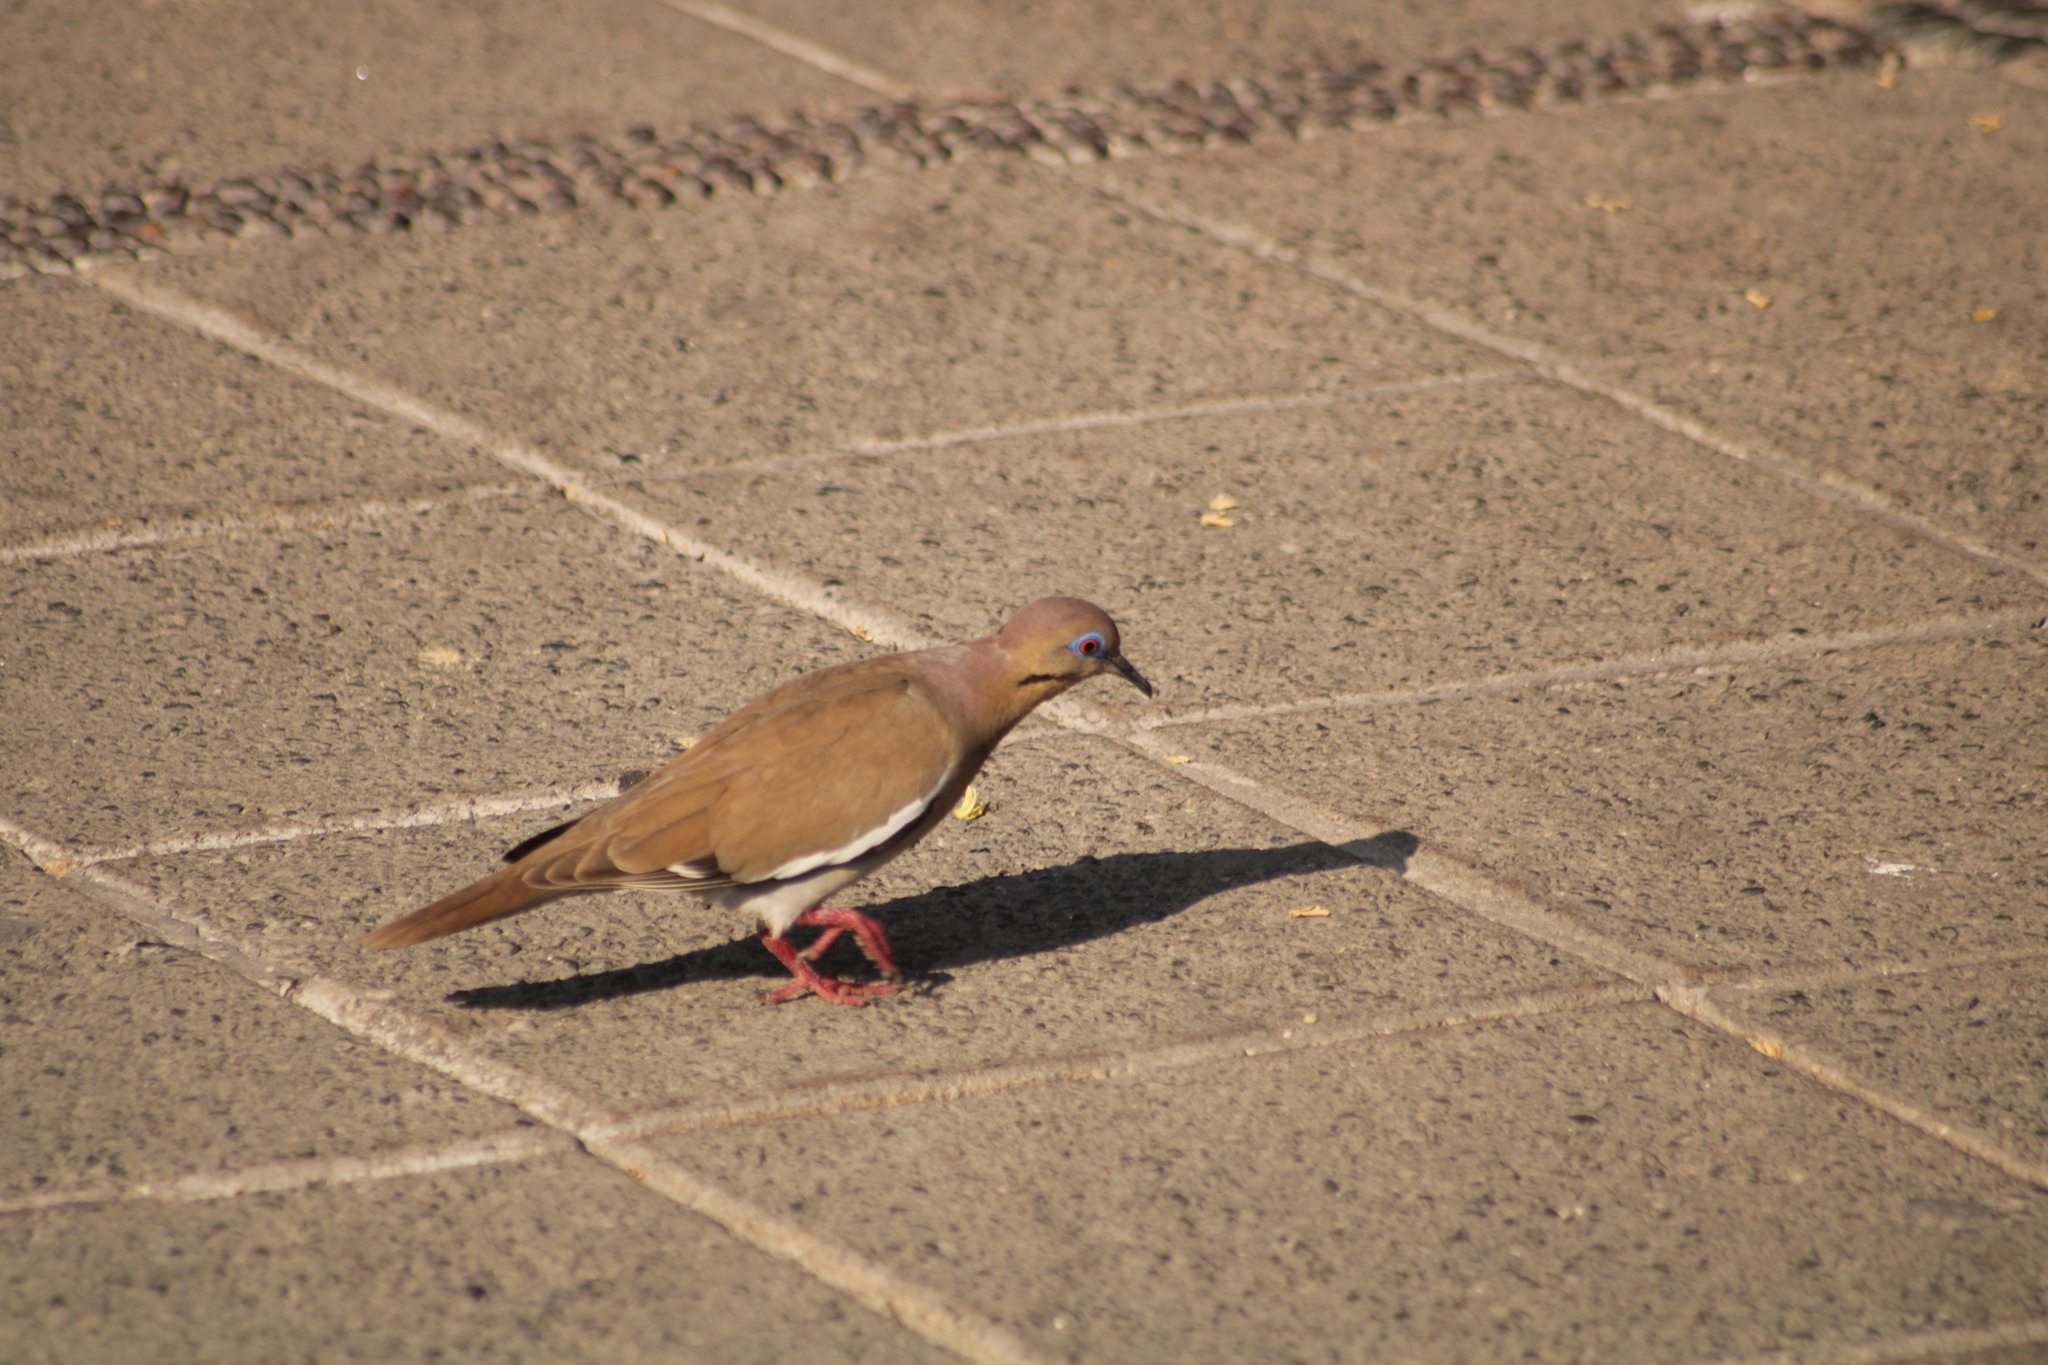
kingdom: Animalia
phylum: Chordata
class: Aves
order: Columbiformes
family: Columbidae
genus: Zenaida
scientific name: Zenaida asiatica
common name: White-winged dove
